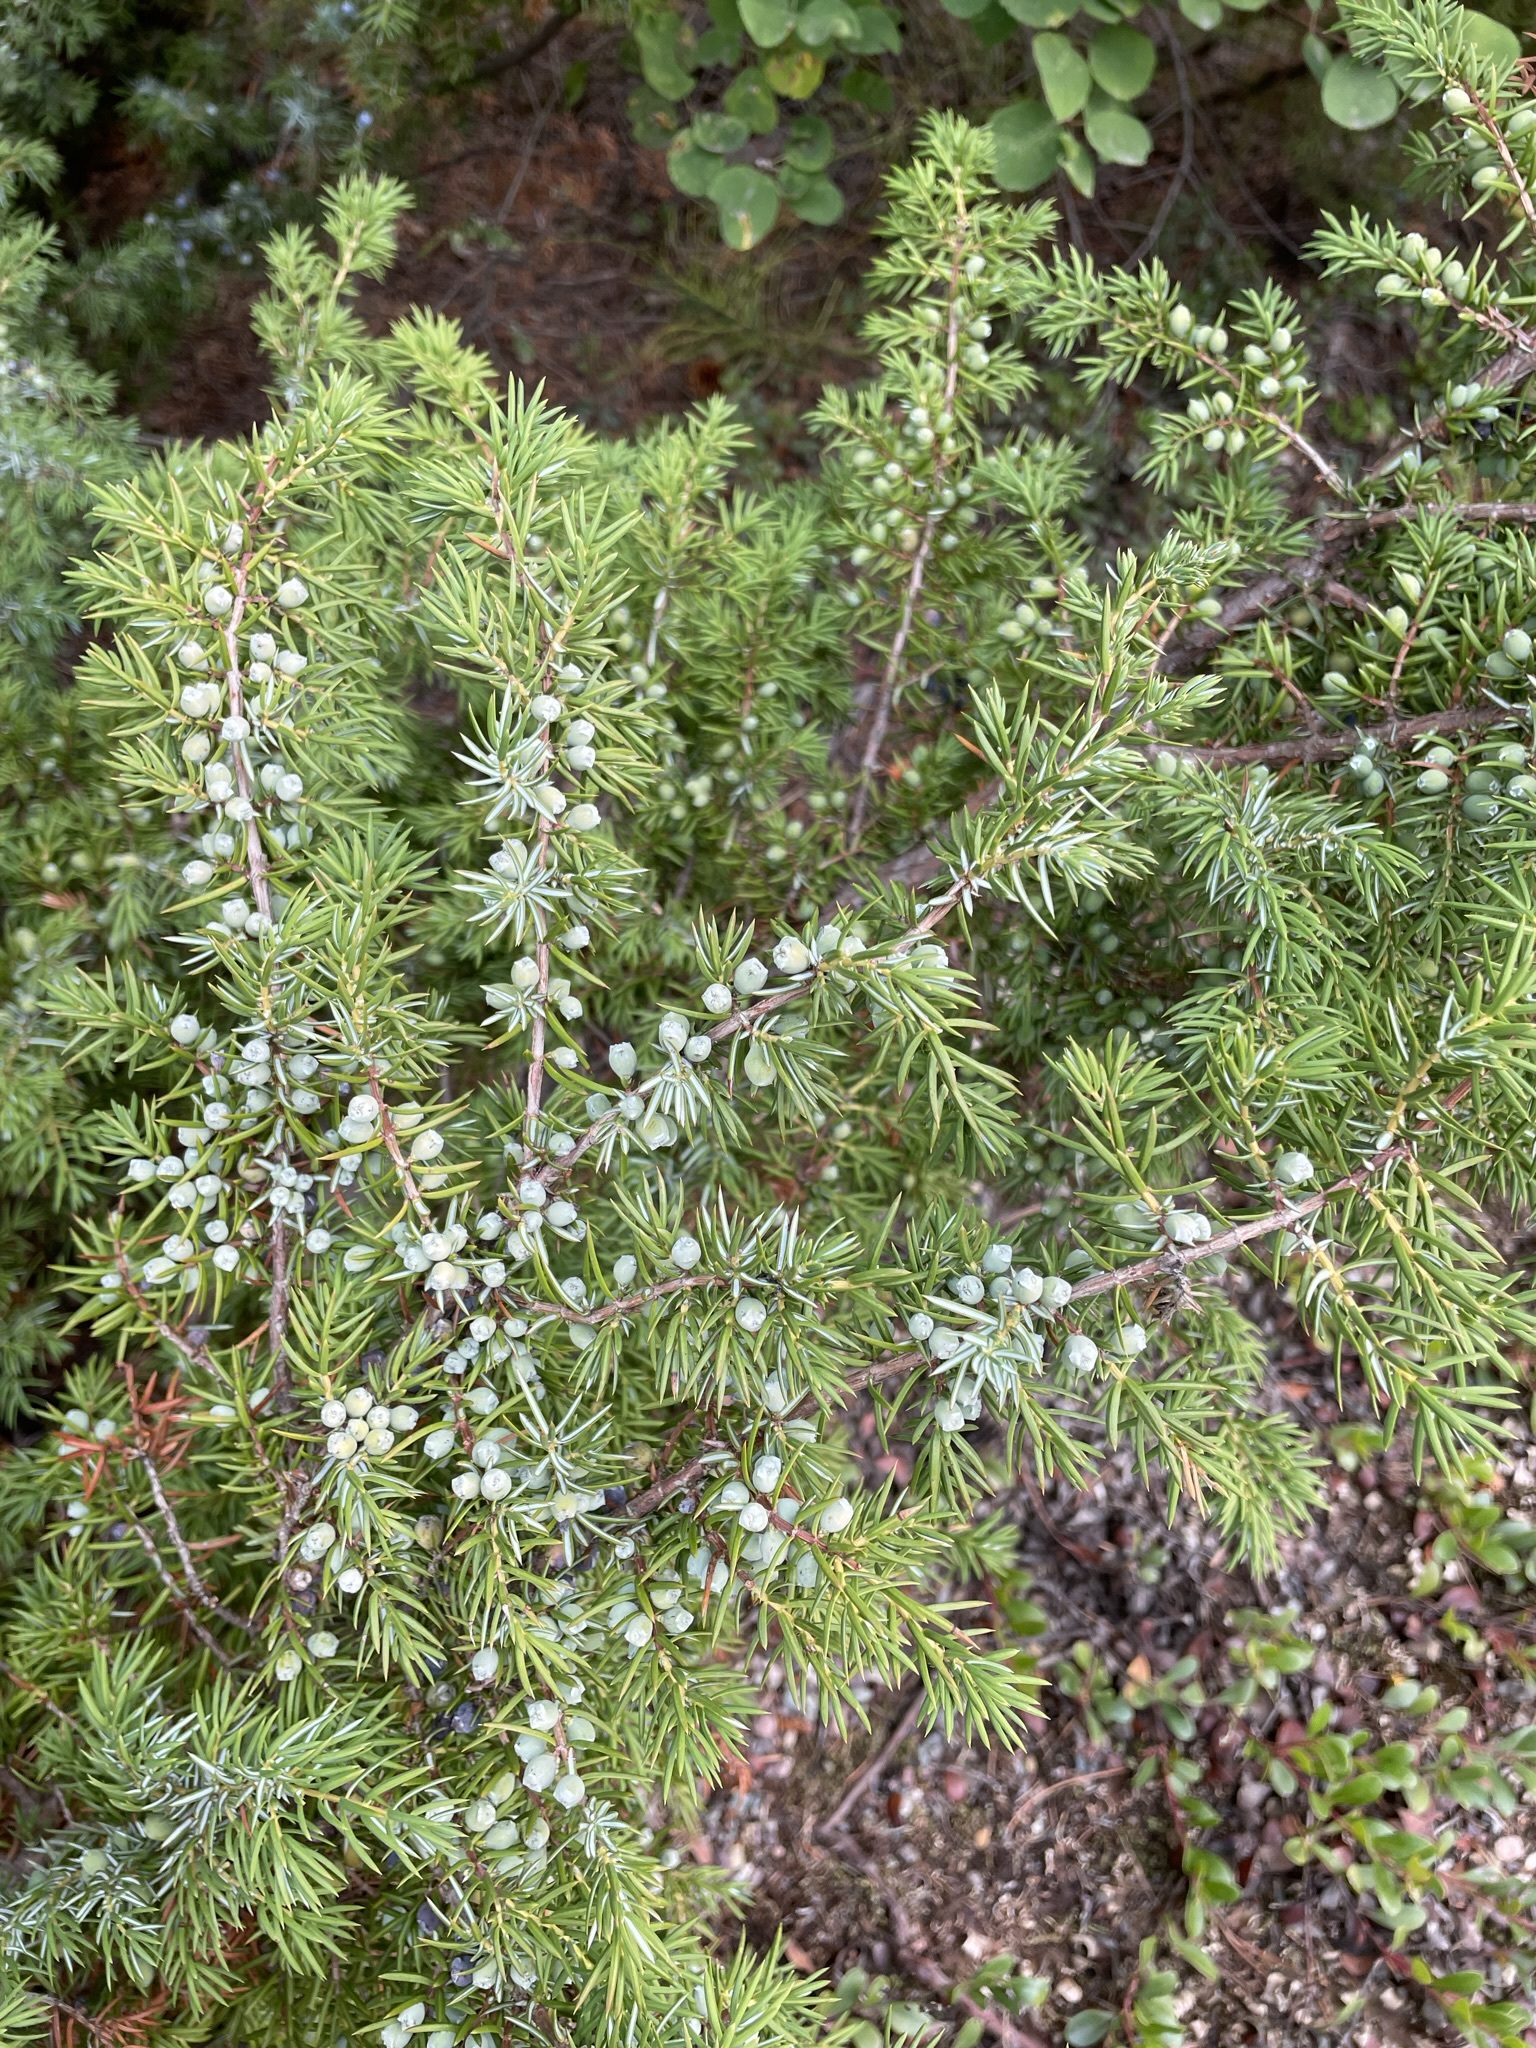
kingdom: Plantae
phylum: Tracheophyta
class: Pinopsida
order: Pinales
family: Cupressaceae
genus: Juniperus
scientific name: Juniperus communis
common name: Common juniper
